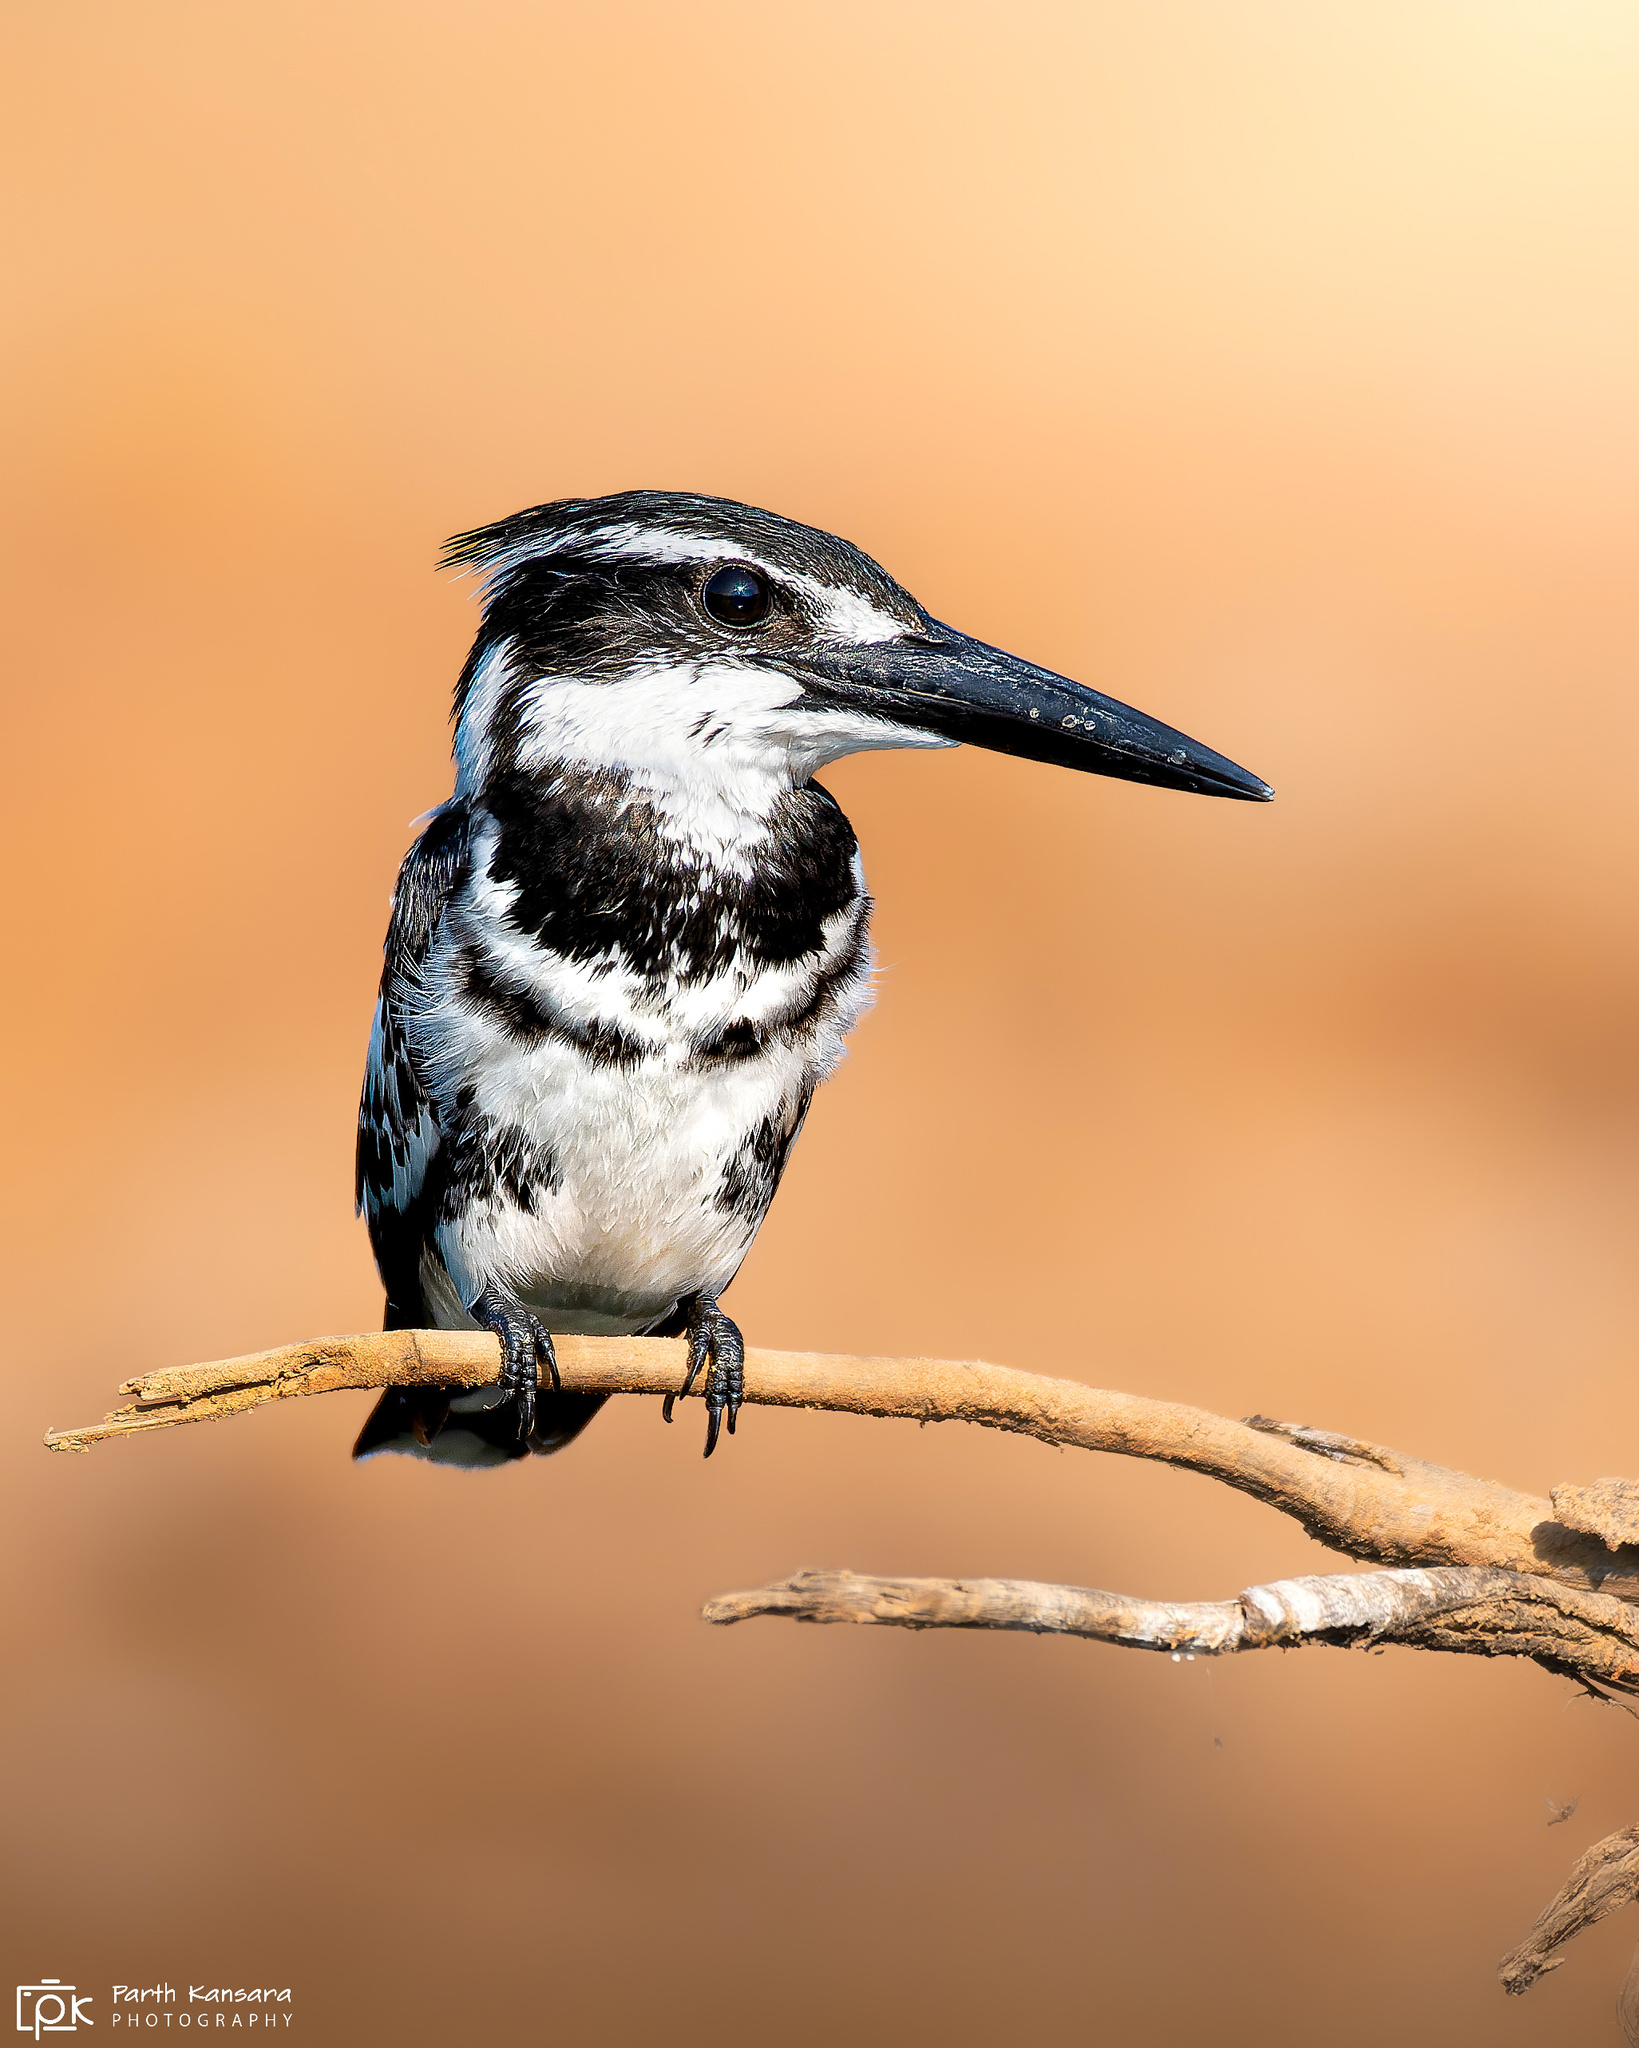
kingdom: Animalia
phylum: Chordata
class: Aves
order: Coraciiformes
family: Alcedinidae
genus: Ceryle
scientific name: Ceryle rudis
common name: Pied kingfisher
